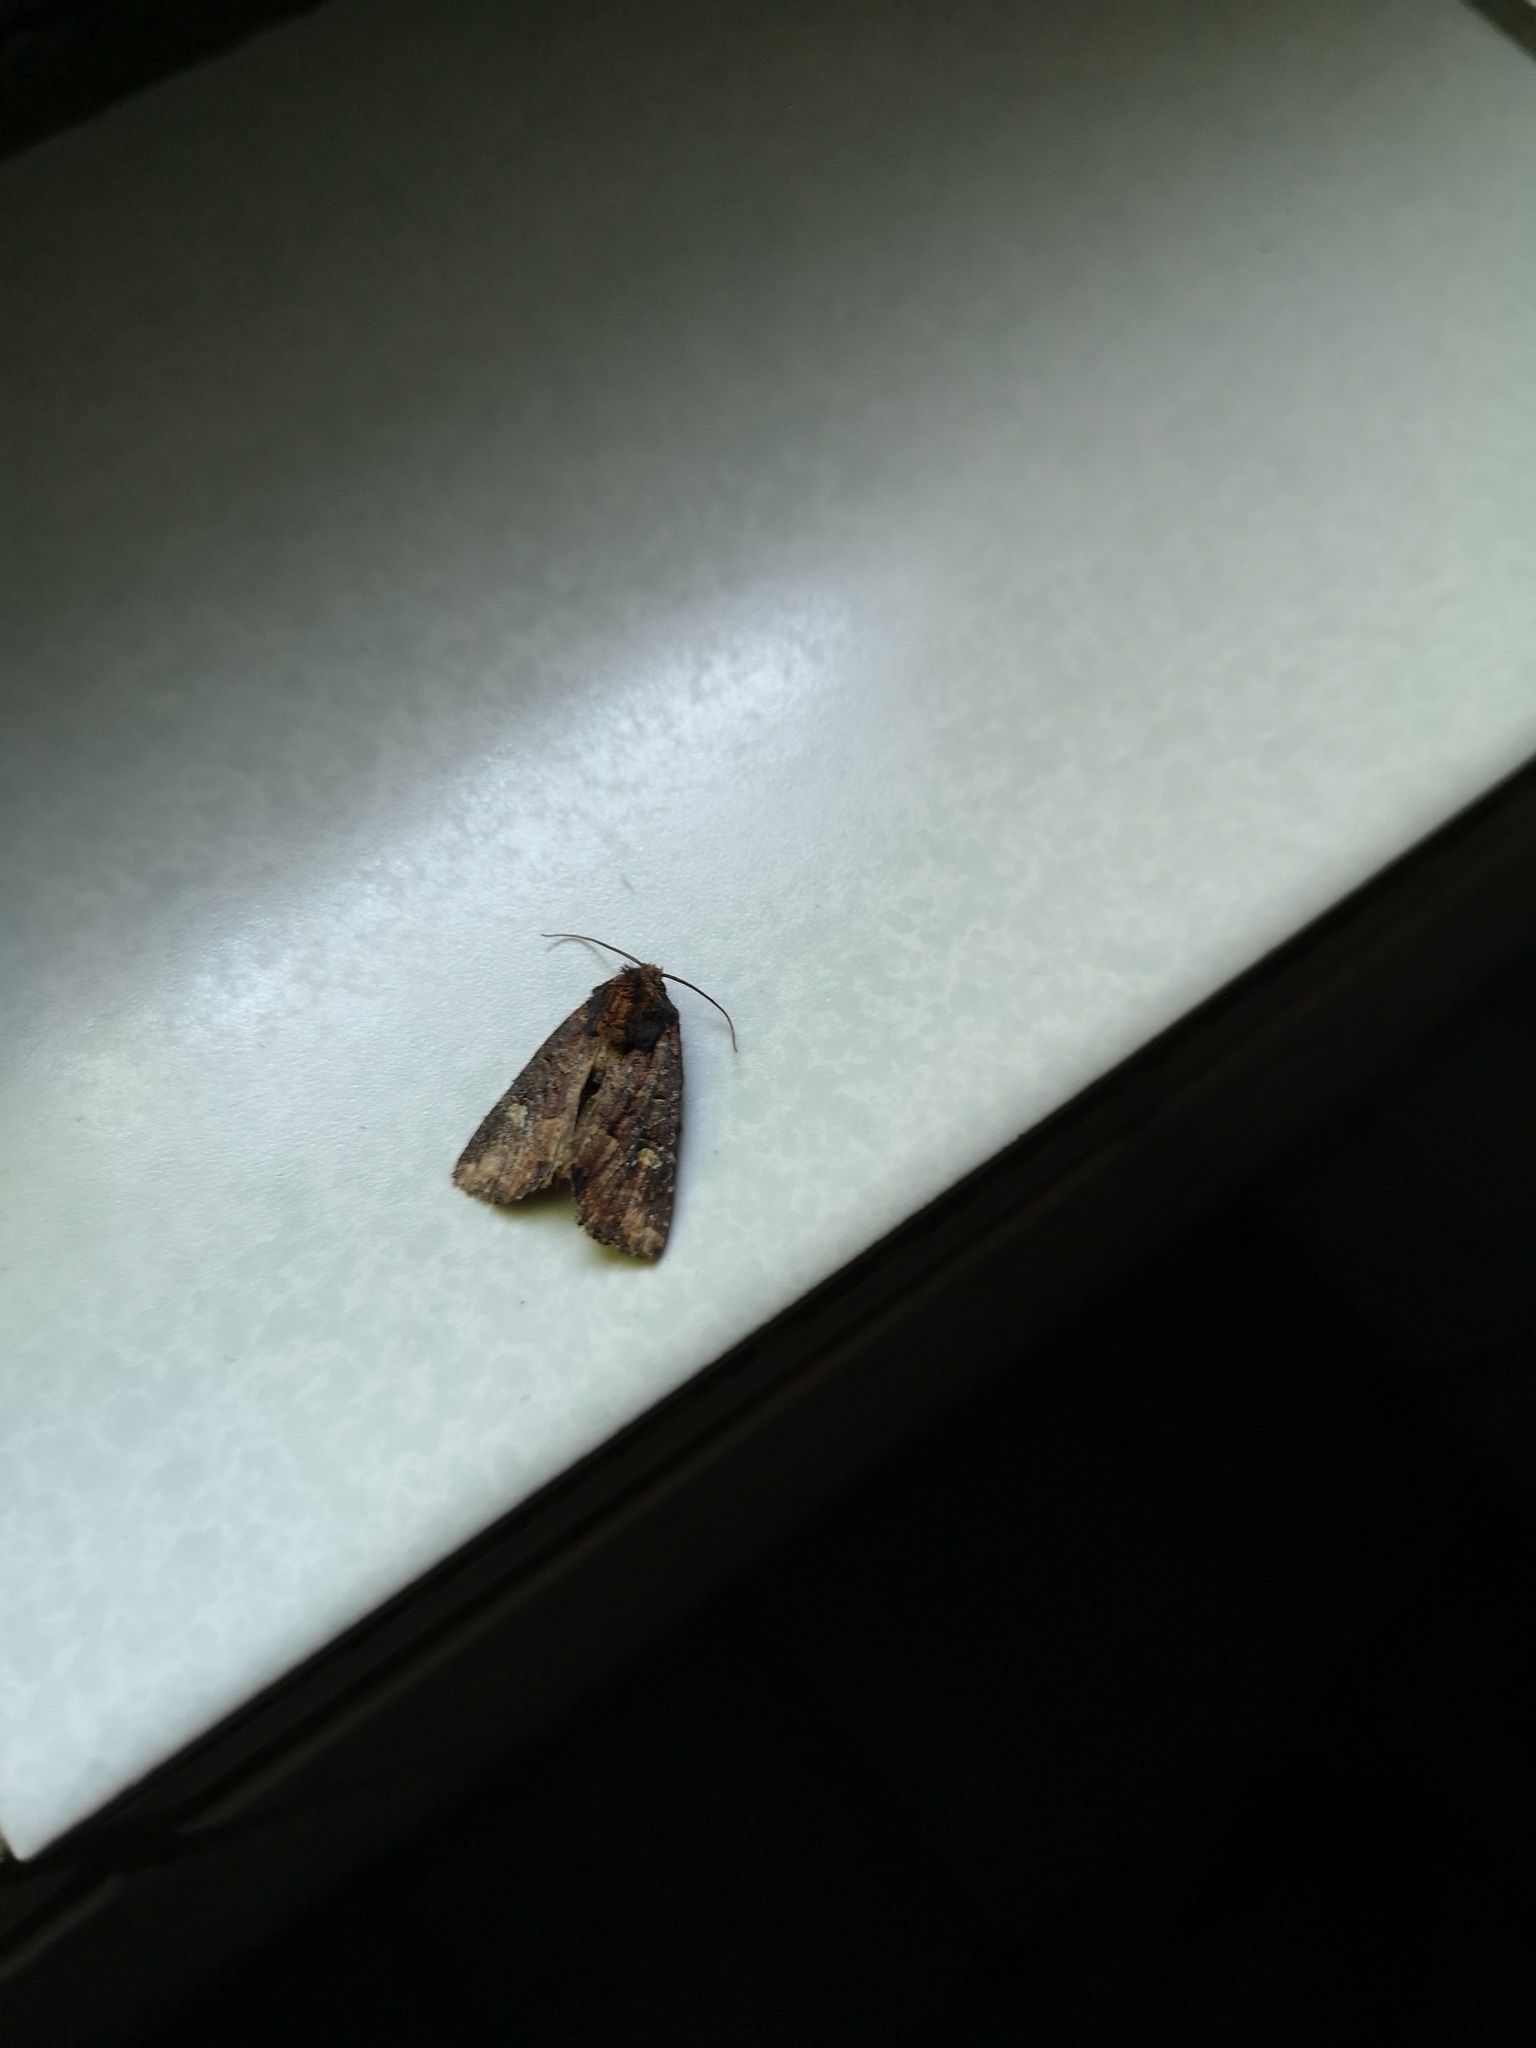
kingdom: Animalia
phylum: Arthropoda
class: Insecta
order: Lepidoptera
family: Noctuidae
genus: Mesapamea
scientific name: Mesapamea
